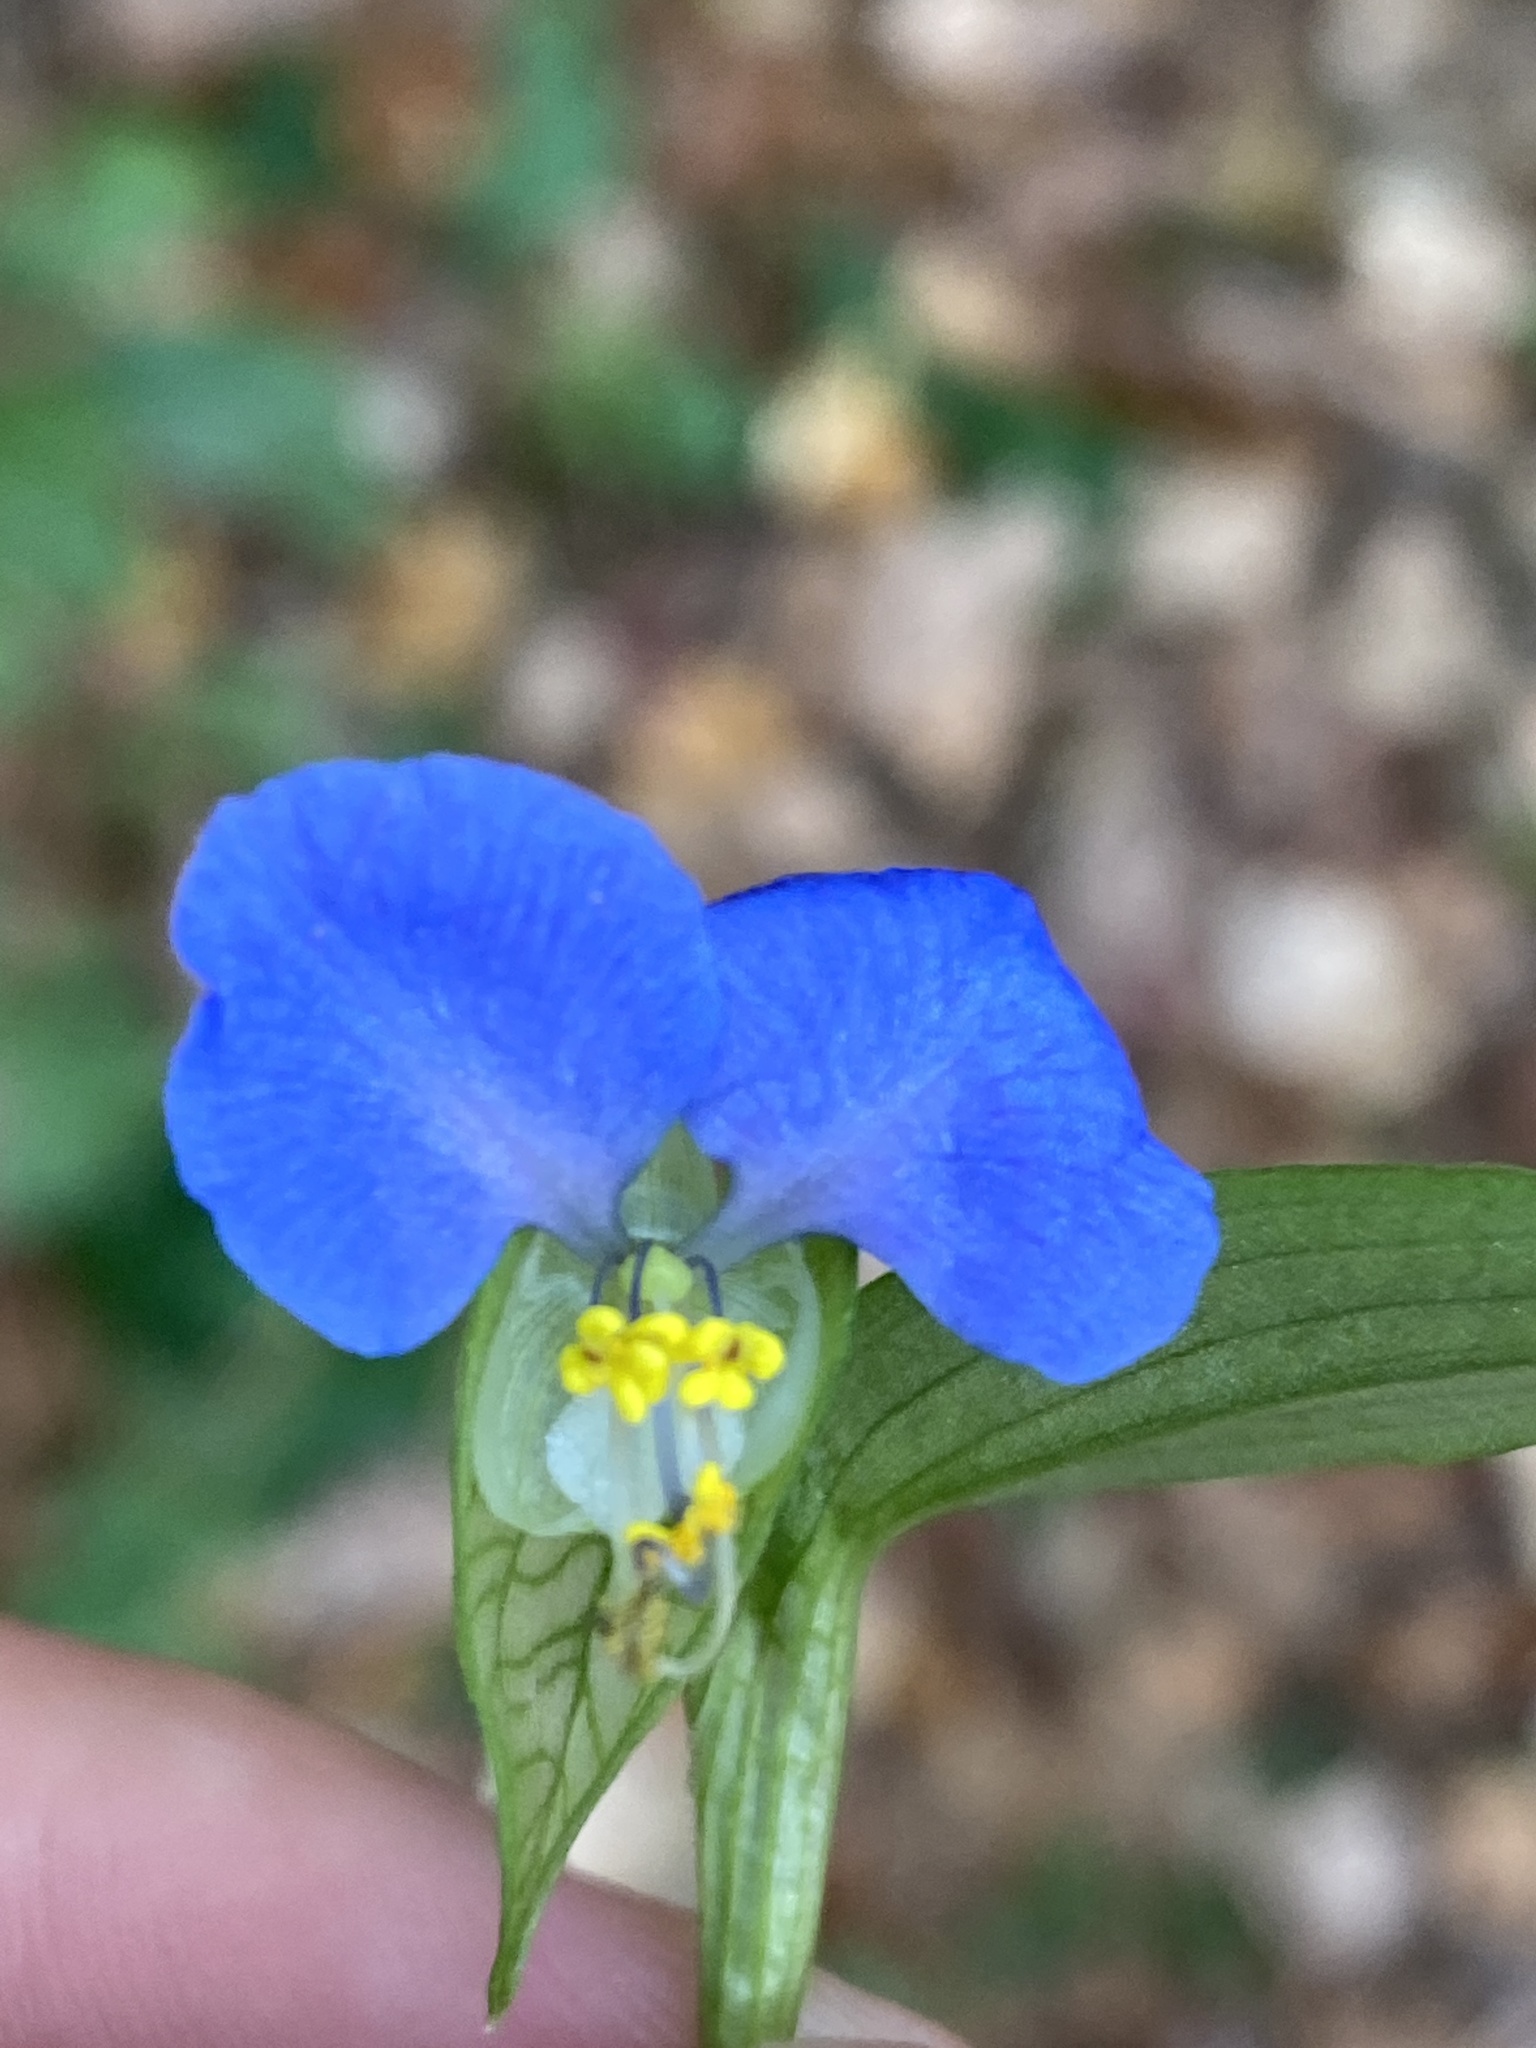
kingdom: Plantae
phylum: Tracheophyta
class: Liliopsida
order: Commelinales
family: Commelinaceae
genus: Commelina
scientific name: Commelina communis
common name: Asiatic dayflower
